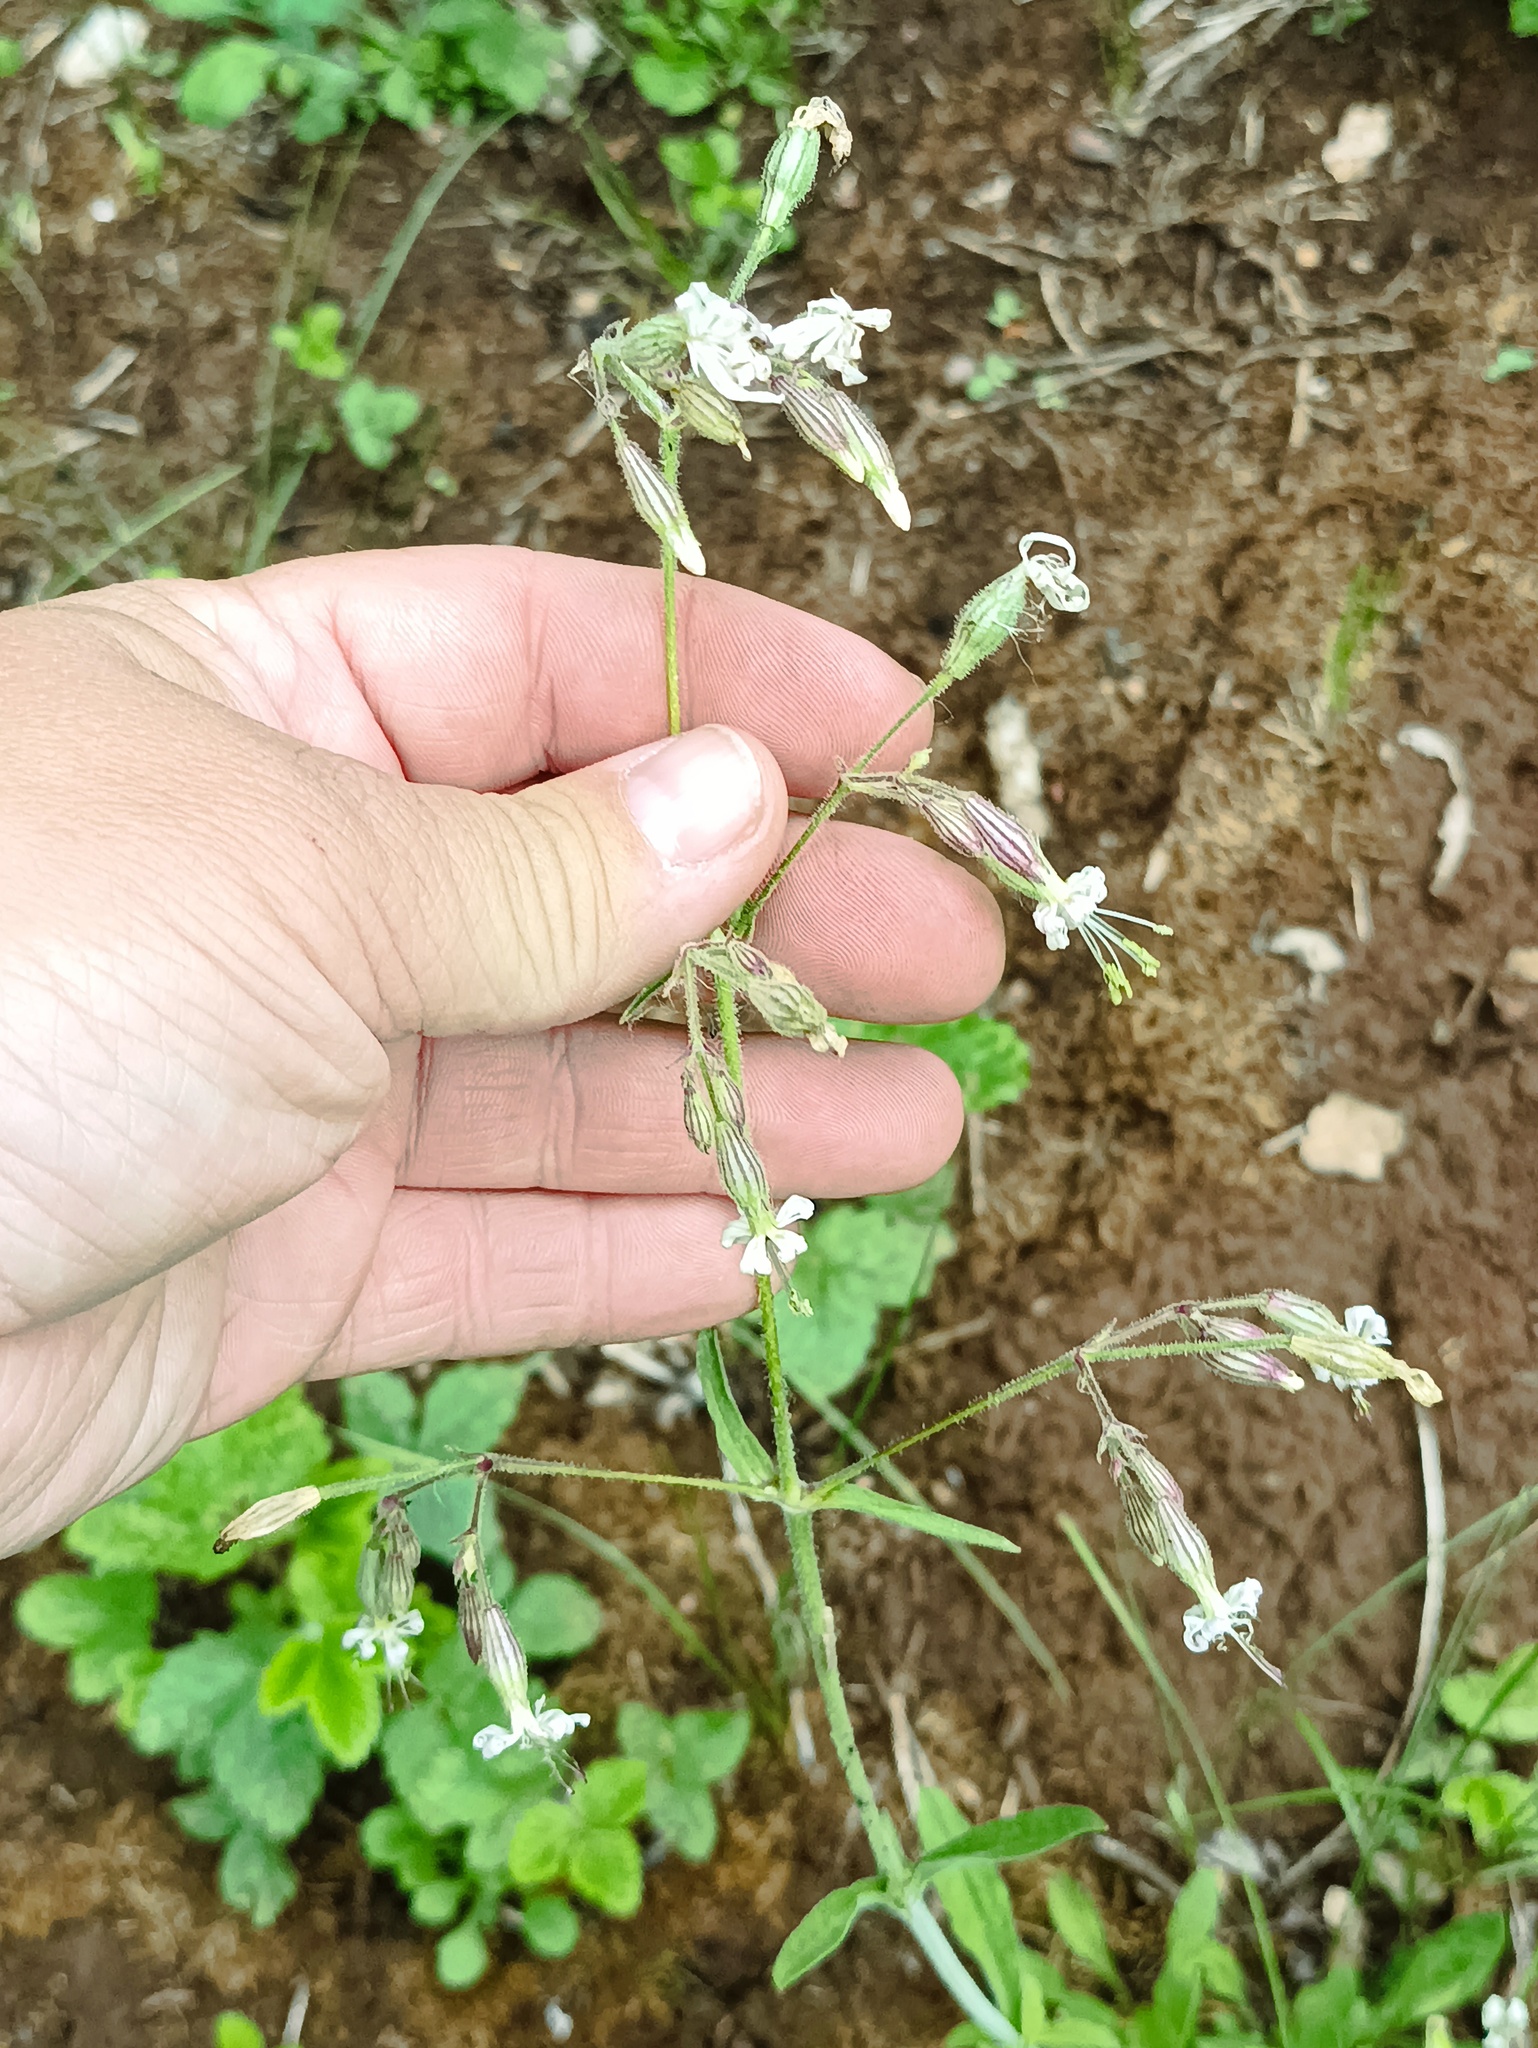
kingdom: Plantae
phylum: Tracheophyta
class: Magnoliopsida
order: Caryophyllales
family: Caryophyllaceae
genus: Silene
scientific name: Silene nutans
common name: Nottingham catchfly
